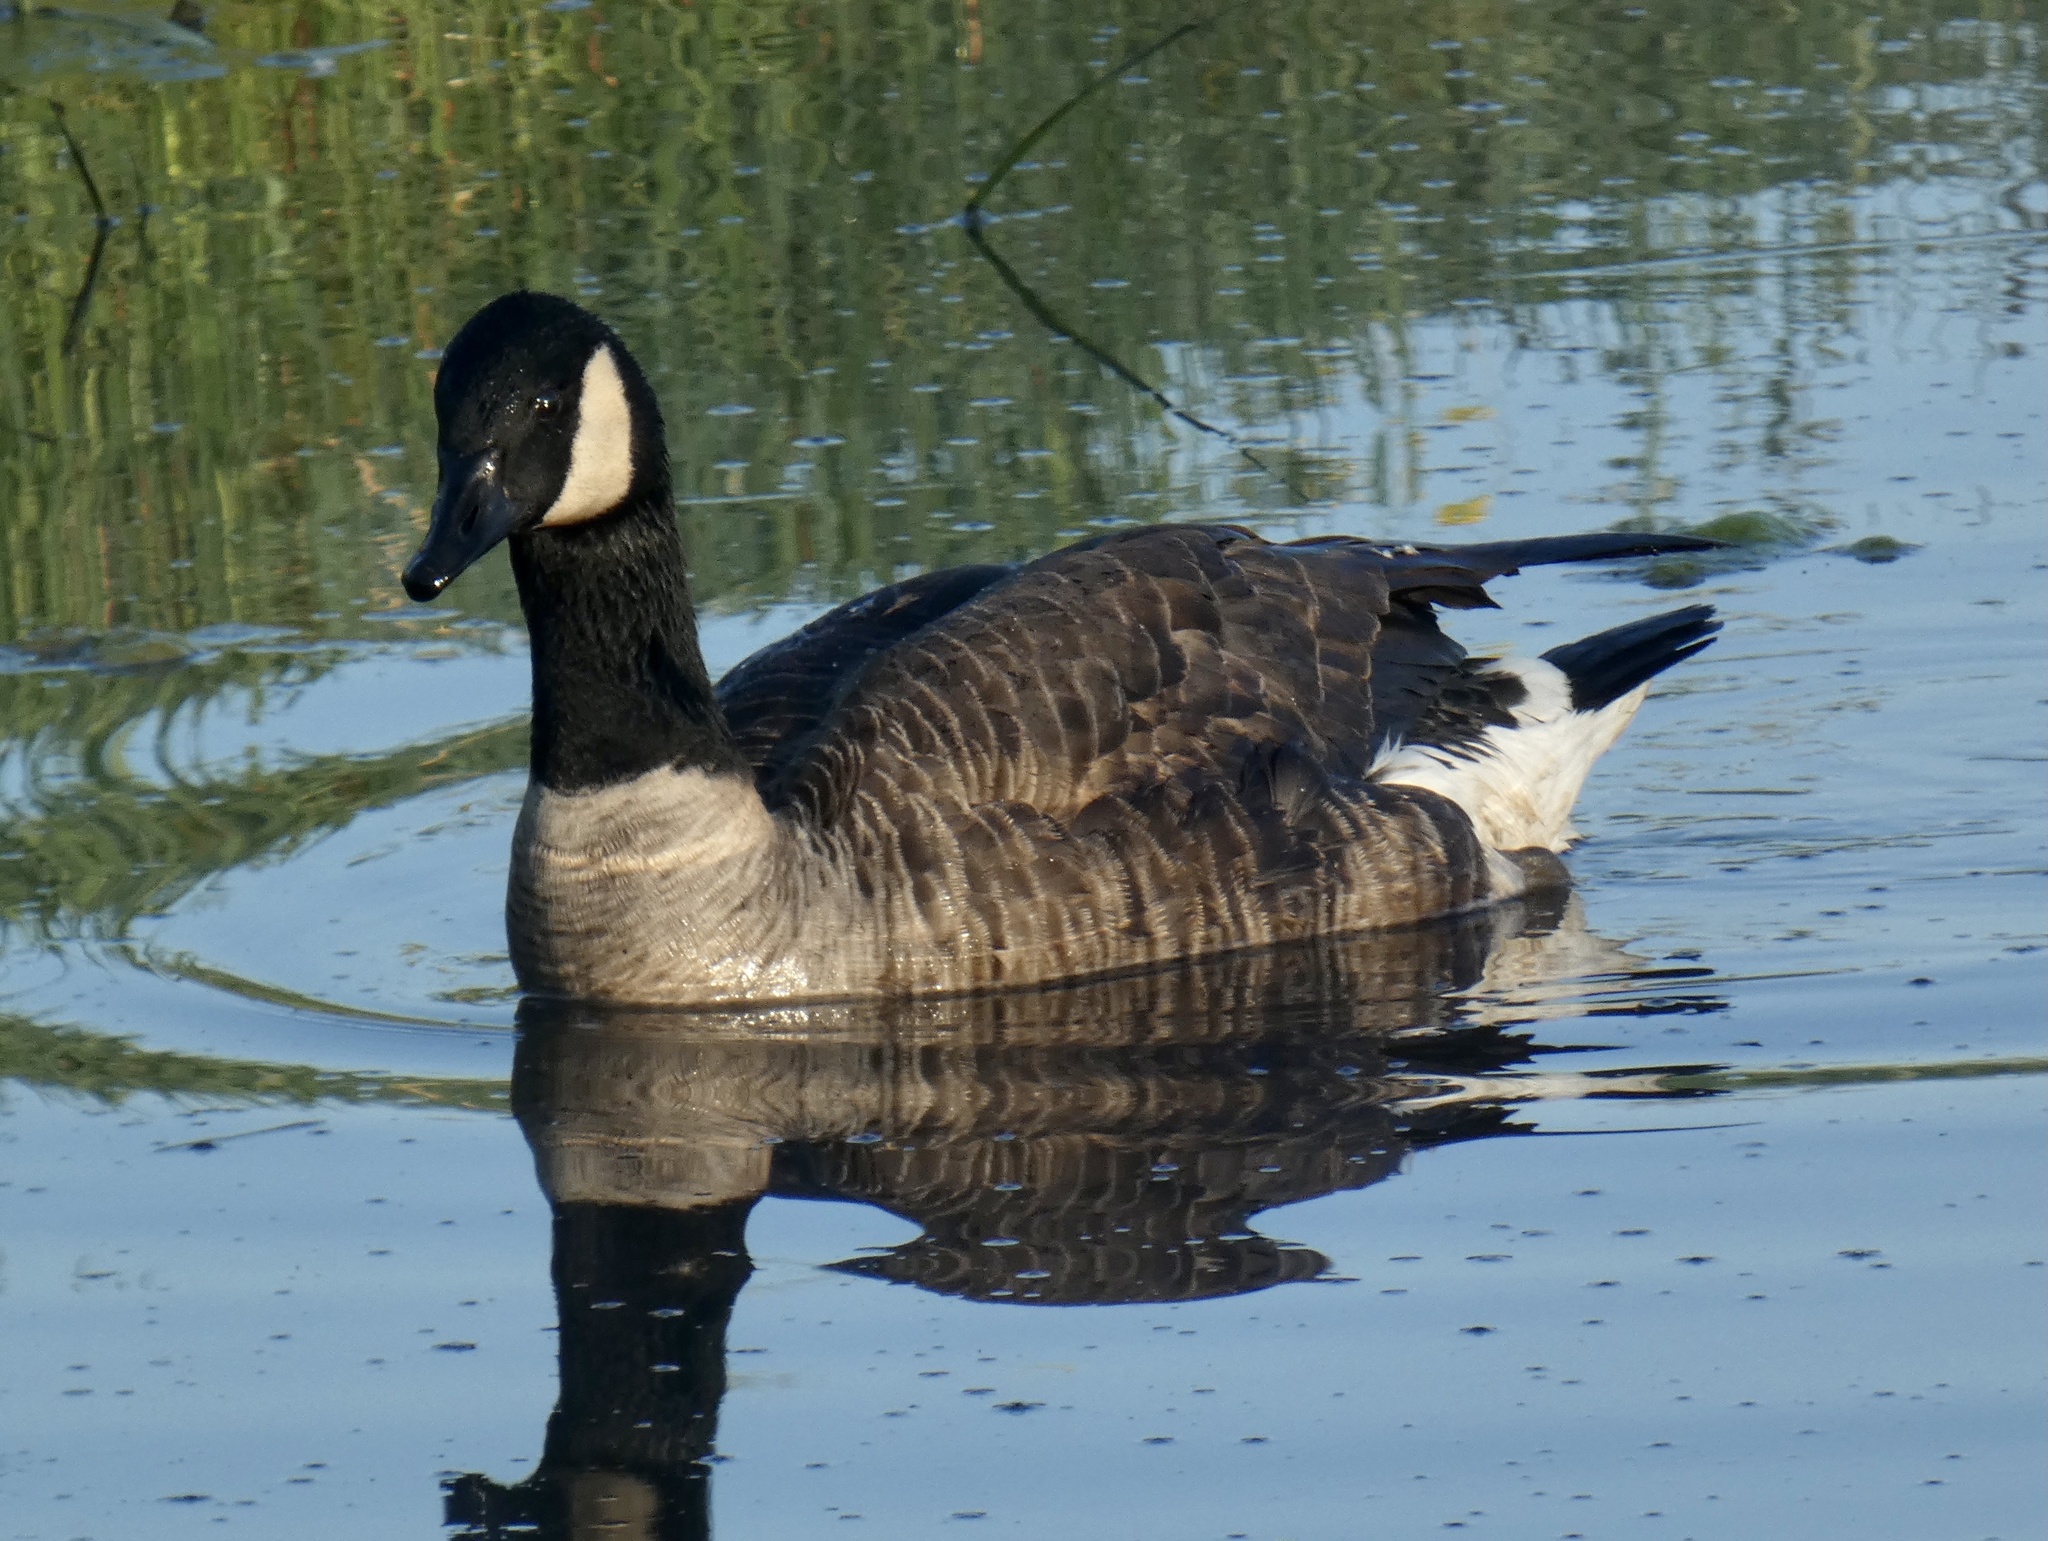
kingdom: Animalia
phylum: Chordata
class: Aves
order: Anseriformes
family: Anatidae
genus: Branta
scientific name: Branta canadensis
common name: Canada goose
